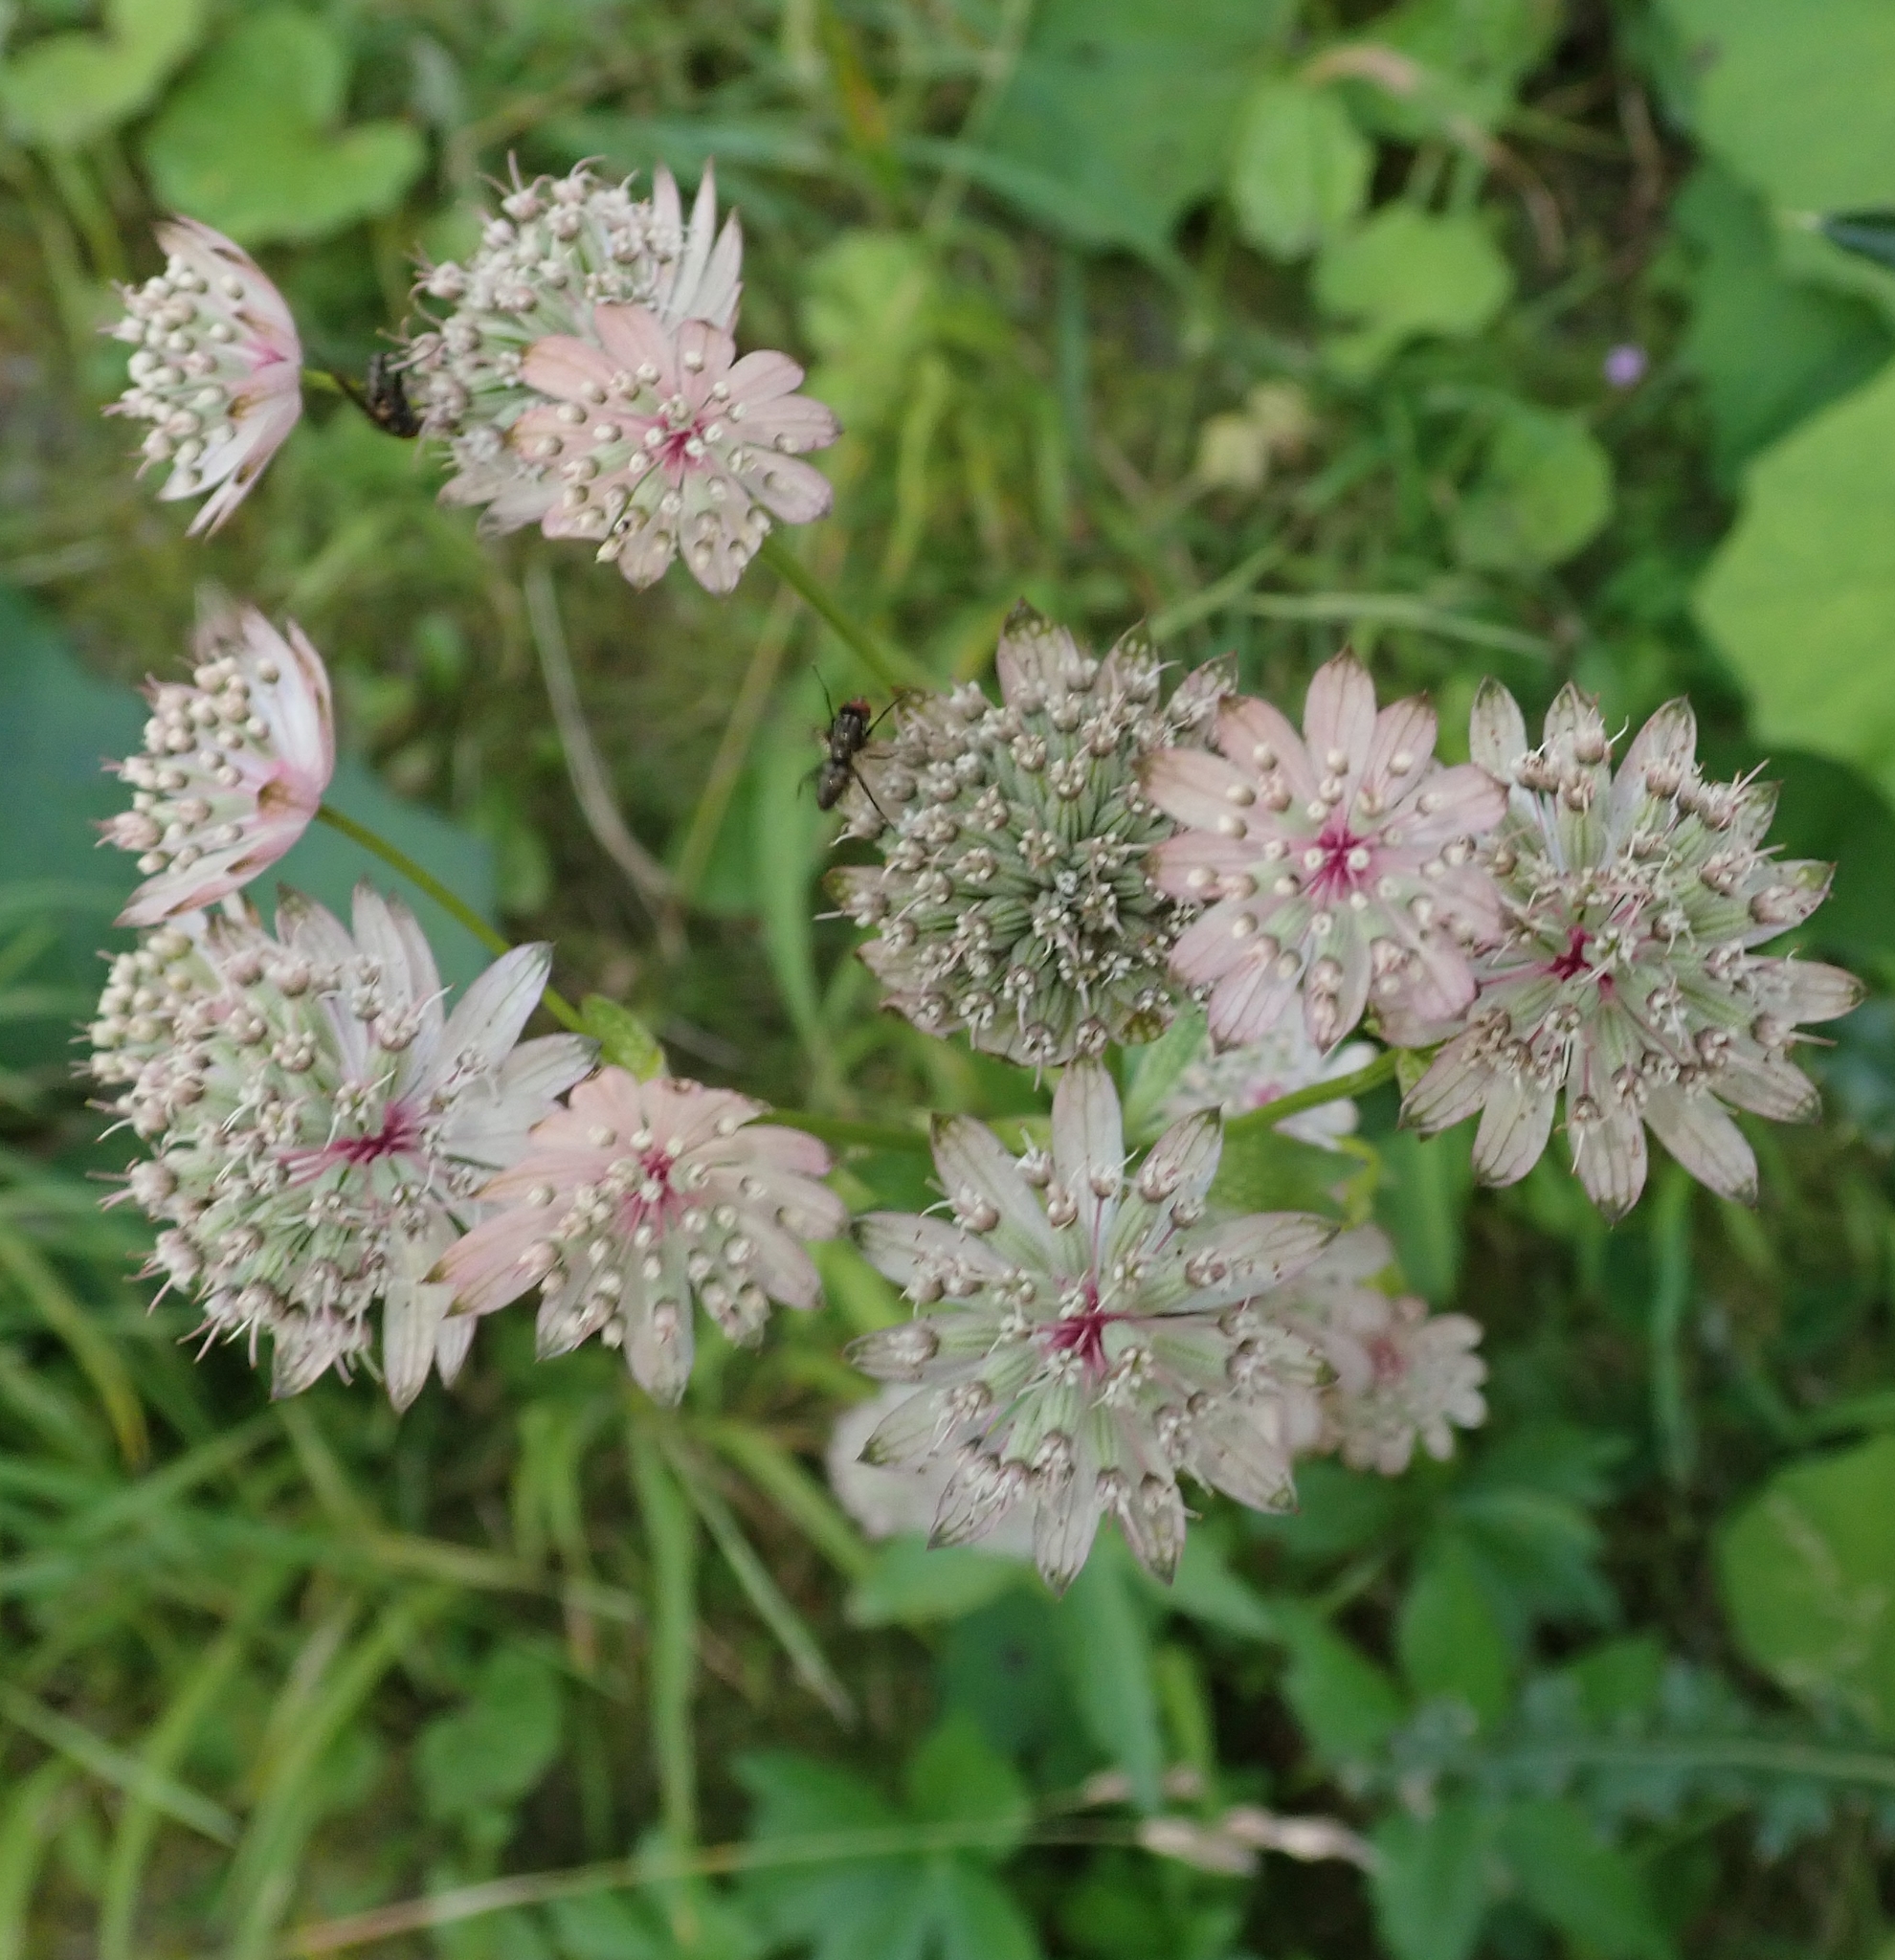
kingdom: Plantae
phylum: Tracheophyta
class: Magnoliopsida
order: Apiales
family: Apiaceae
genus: Astrantia
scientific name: Astrantia major
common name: Greater masterwort
